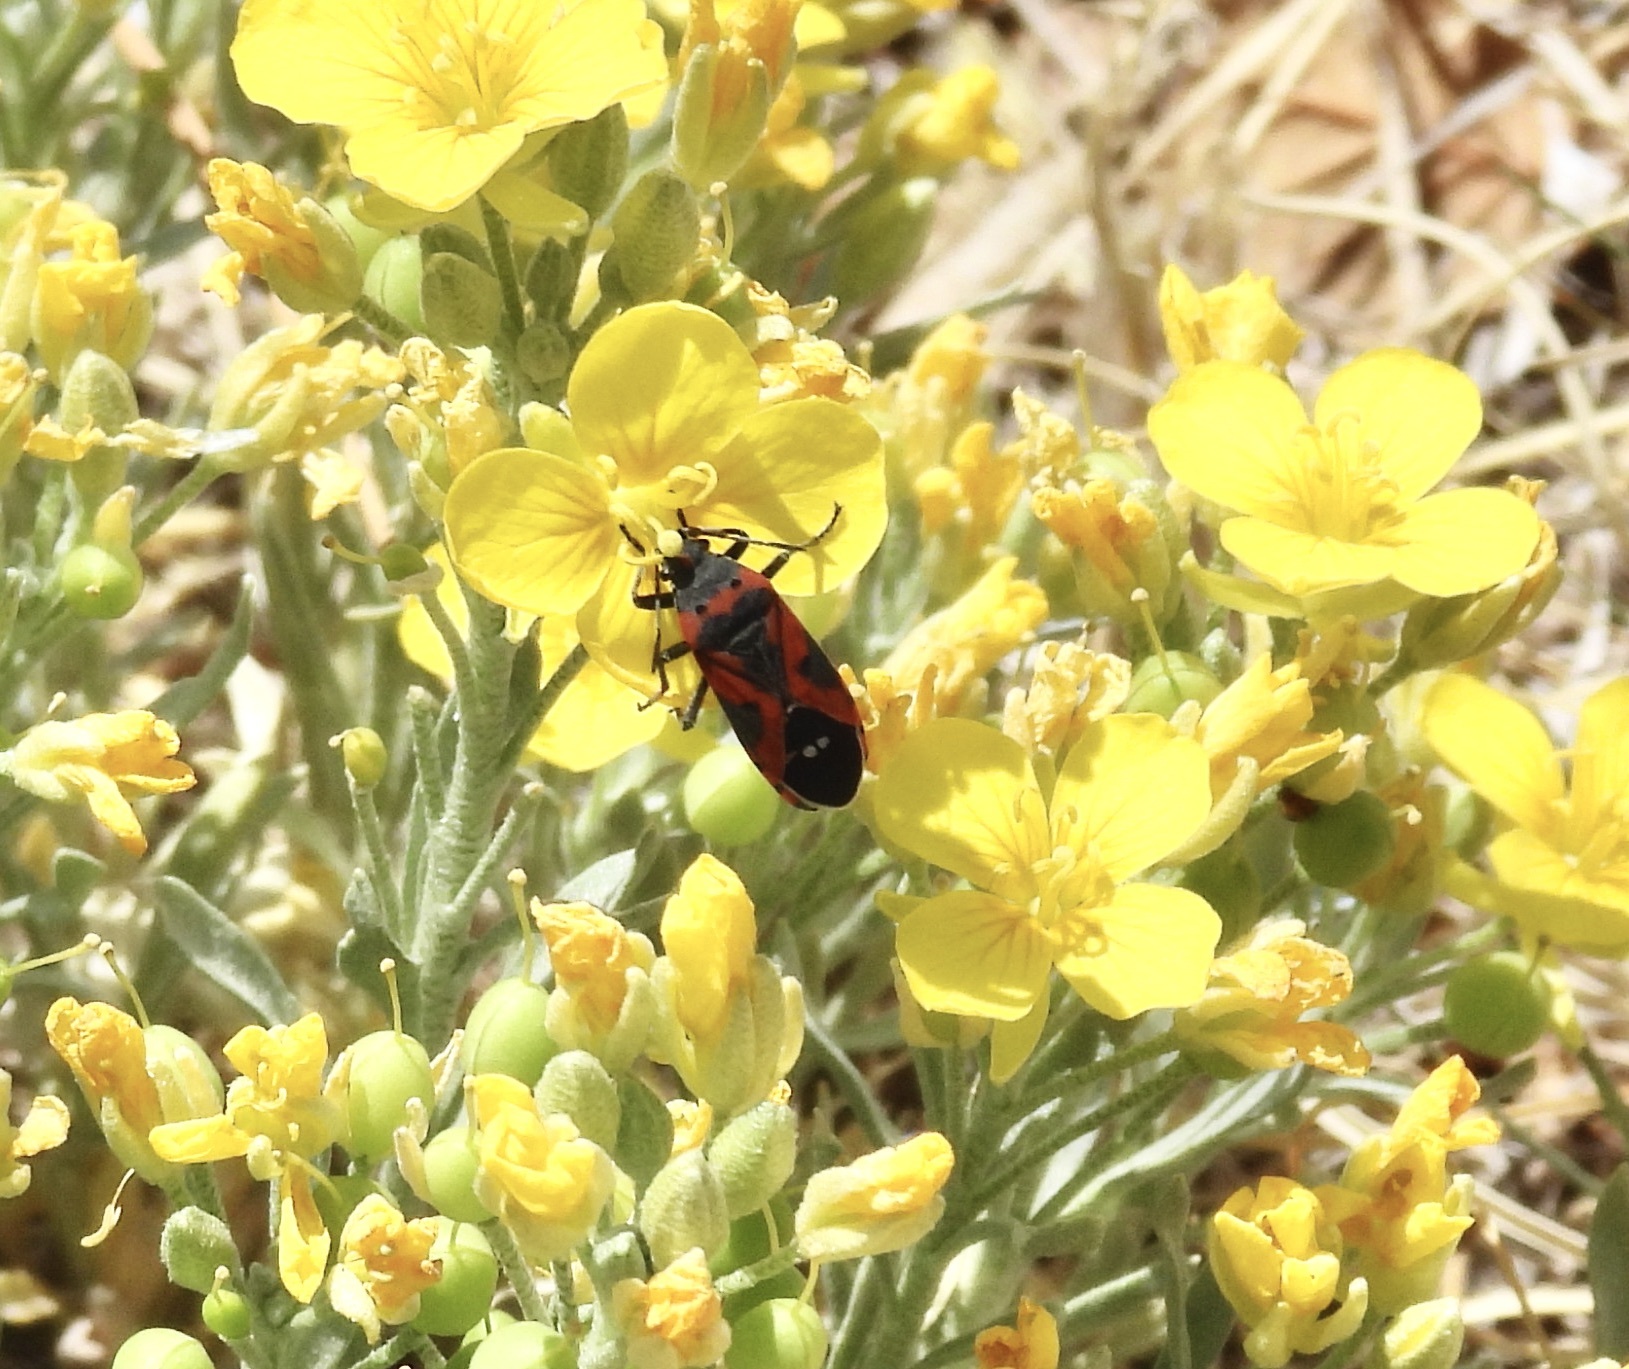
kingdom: Animalia
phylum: Arthropoda
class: Insecta
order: Hemiptera
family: Lygaeidae
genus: Lygaeus
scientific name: Lygaeus reclivatus
